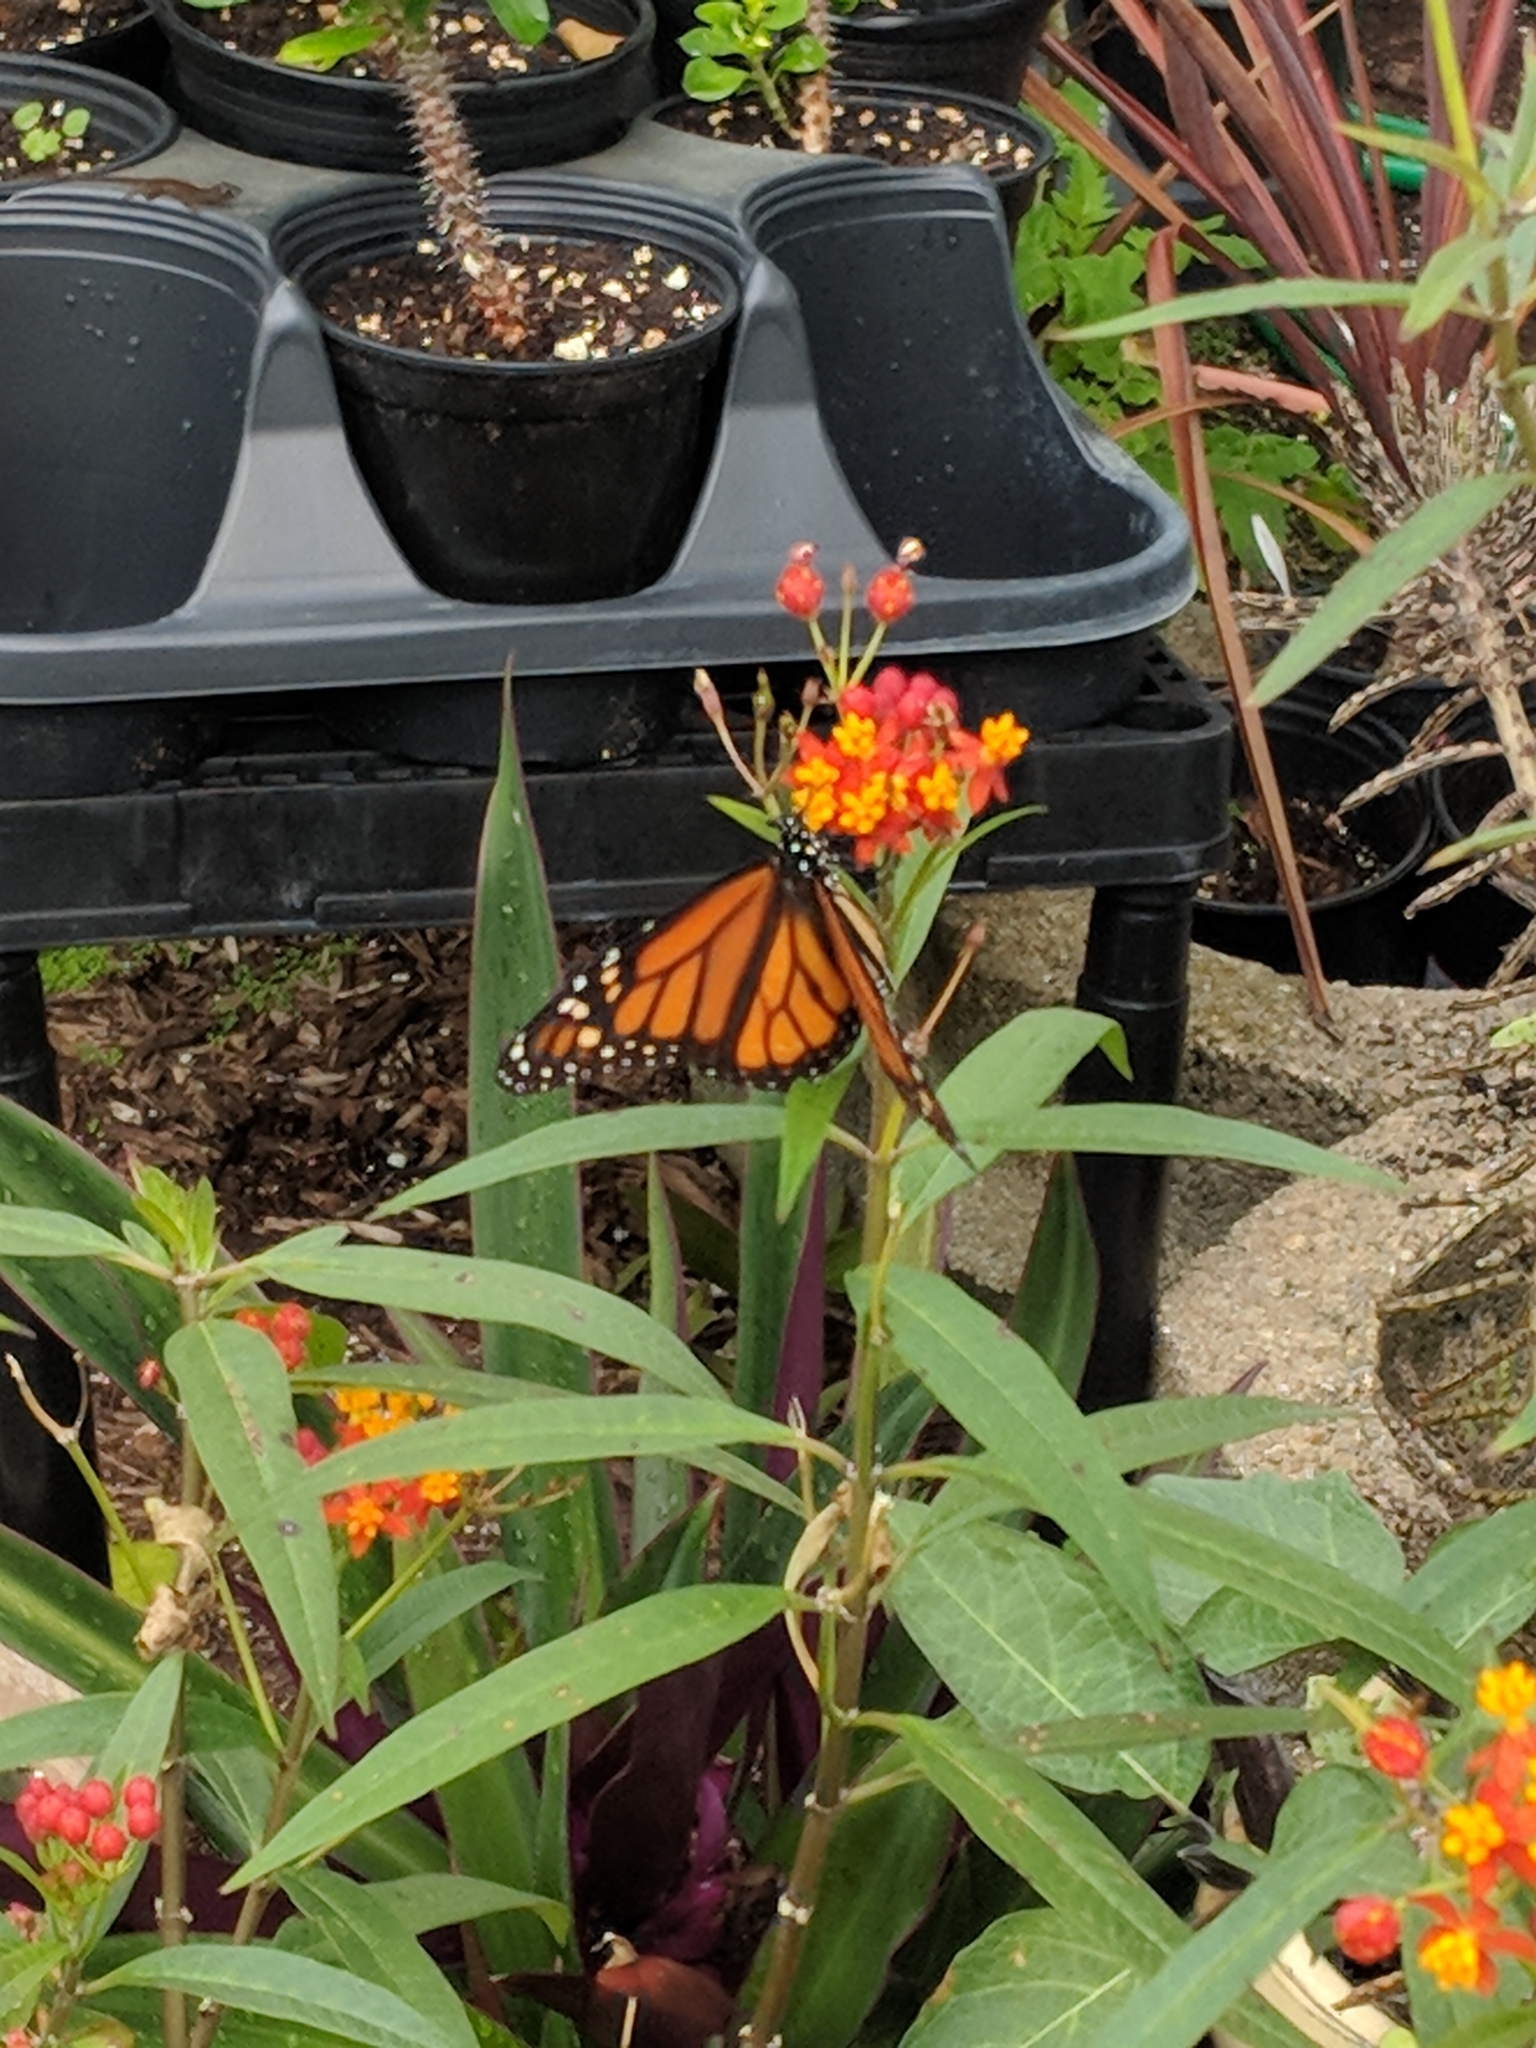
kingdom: Animalia
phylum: Arthropoda
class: Insecta
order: Lepidoptera
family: Nymphalidae
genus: Danaus
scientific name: Danaus plexippus
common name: Monarch
